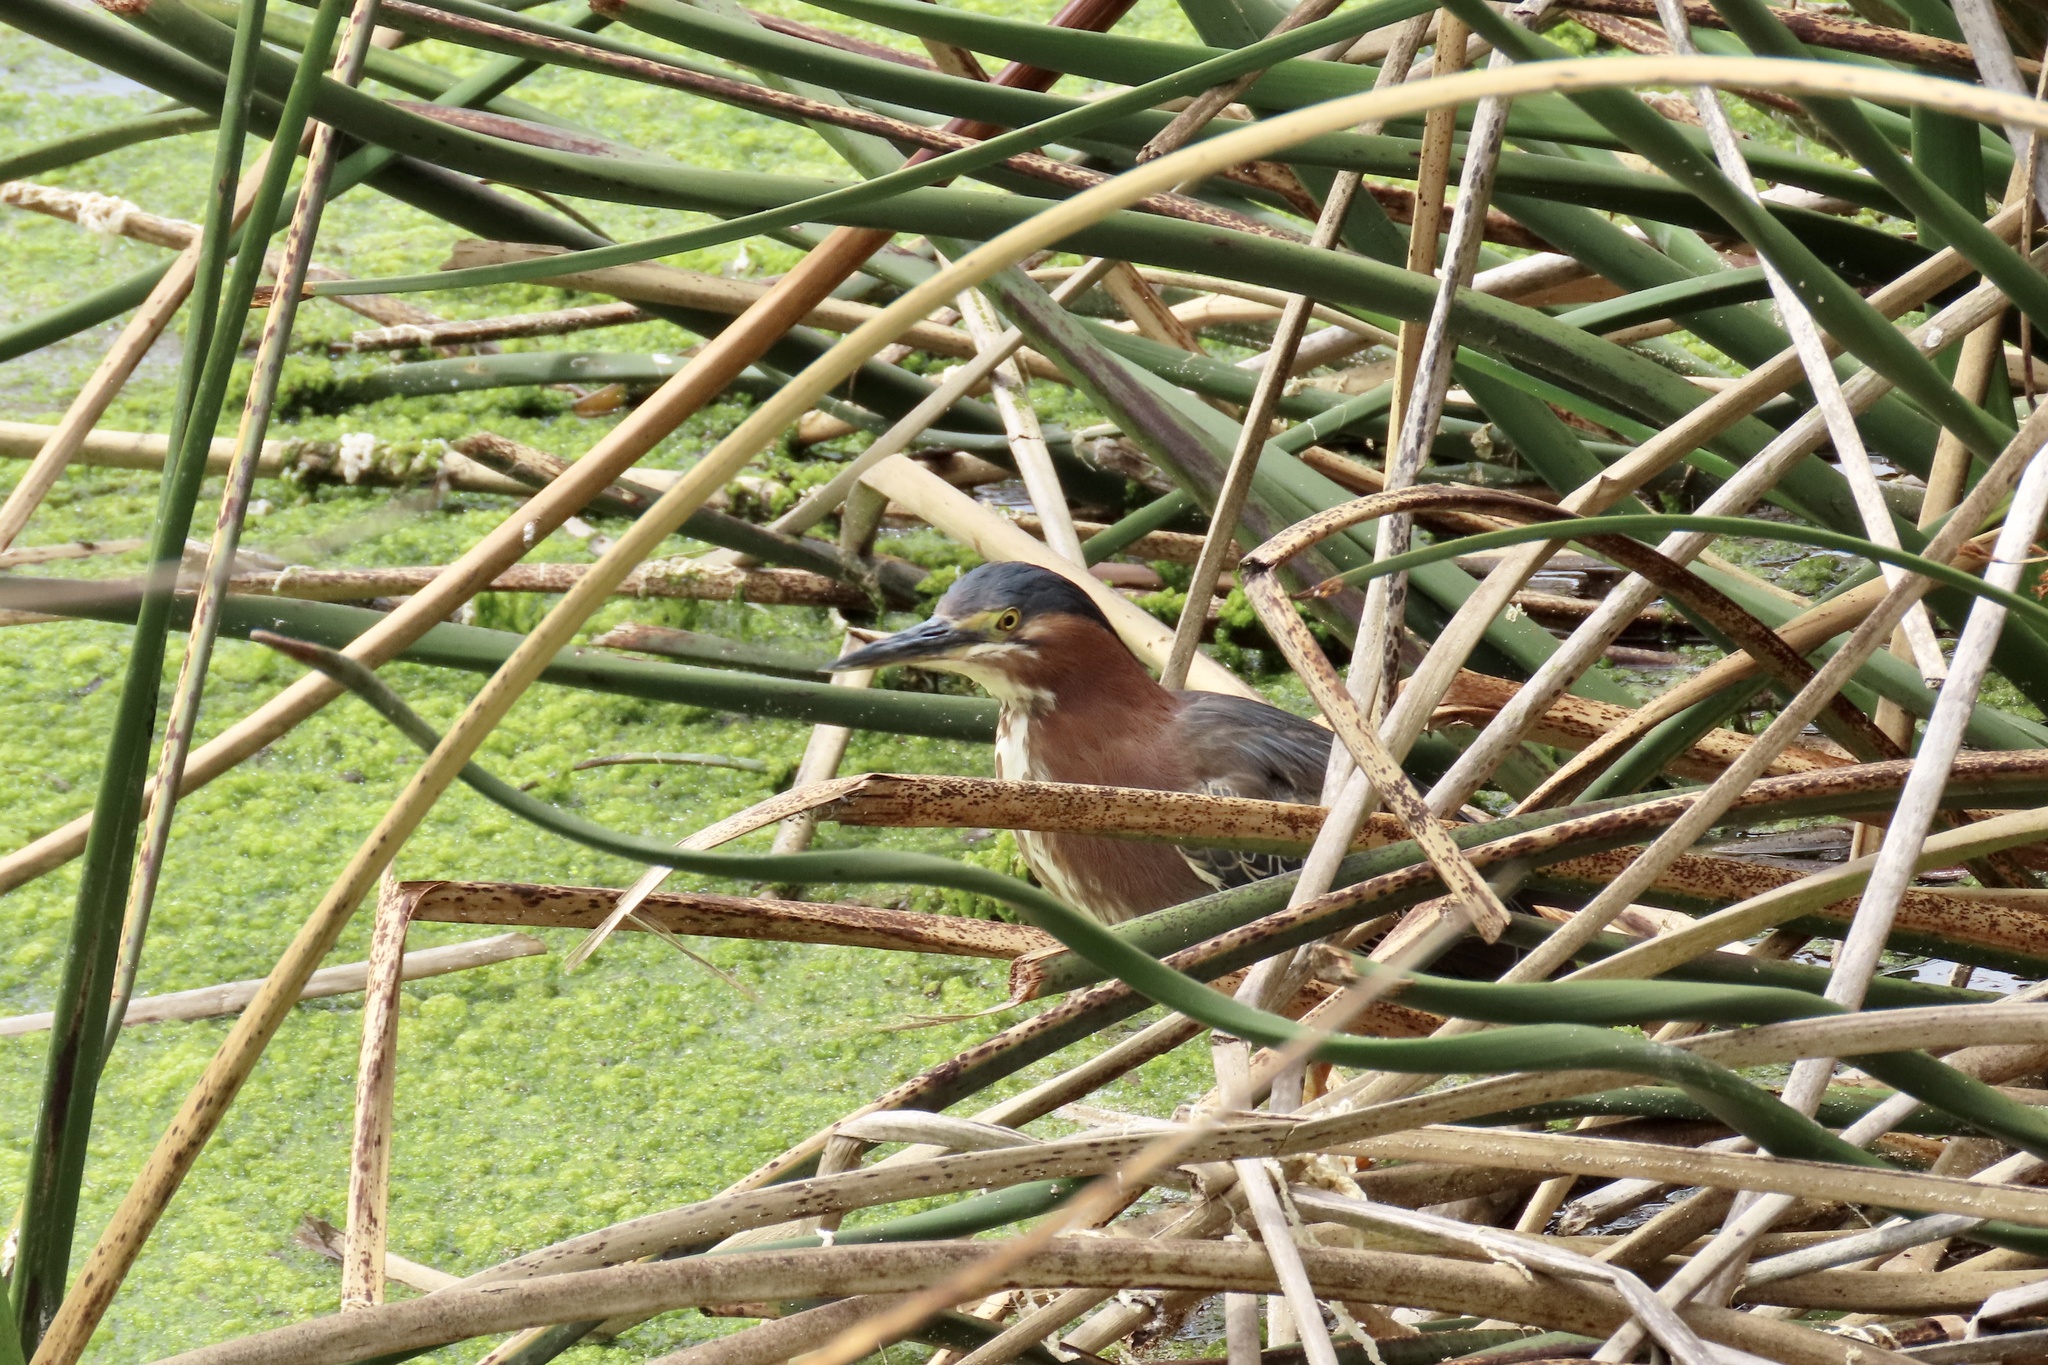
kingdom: Animalia
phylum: Chordata
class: Aves
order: Pelecaniformes
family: Ardeidae
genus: Butorides
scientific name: Butorides virescens
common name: Green heron
